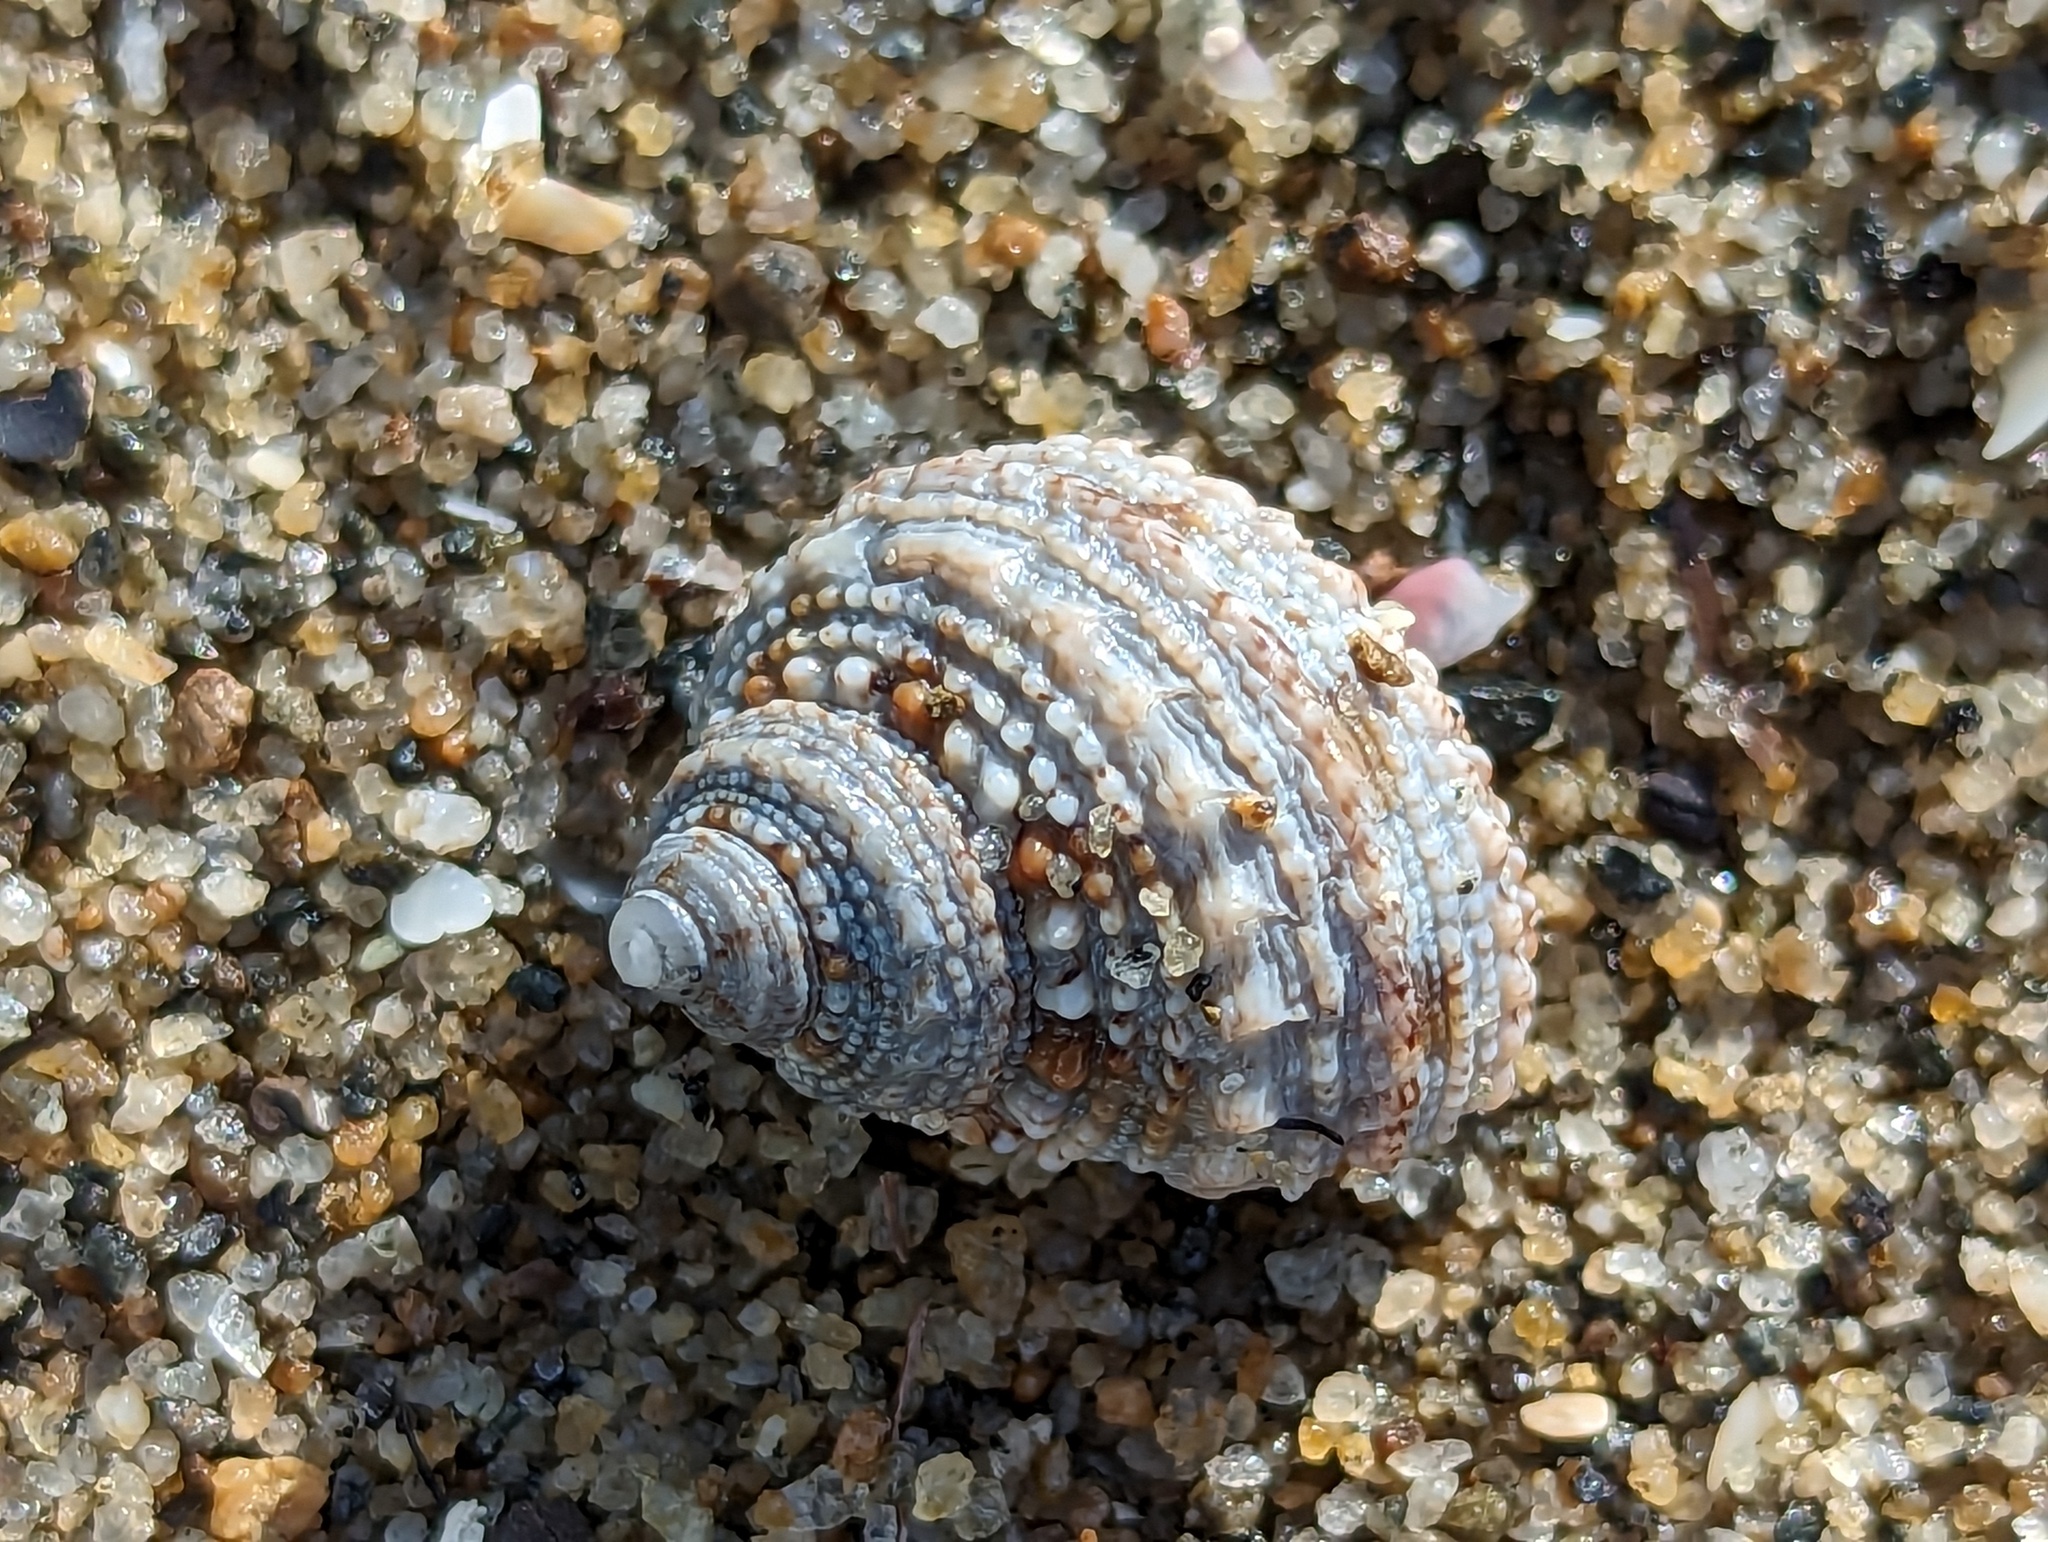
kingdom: Animalia
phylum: Mollusca
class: Gastropoda
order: Trochida
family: Turbinidae
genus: Turbo
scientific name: Turbo castanea
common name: Chestnut turban
